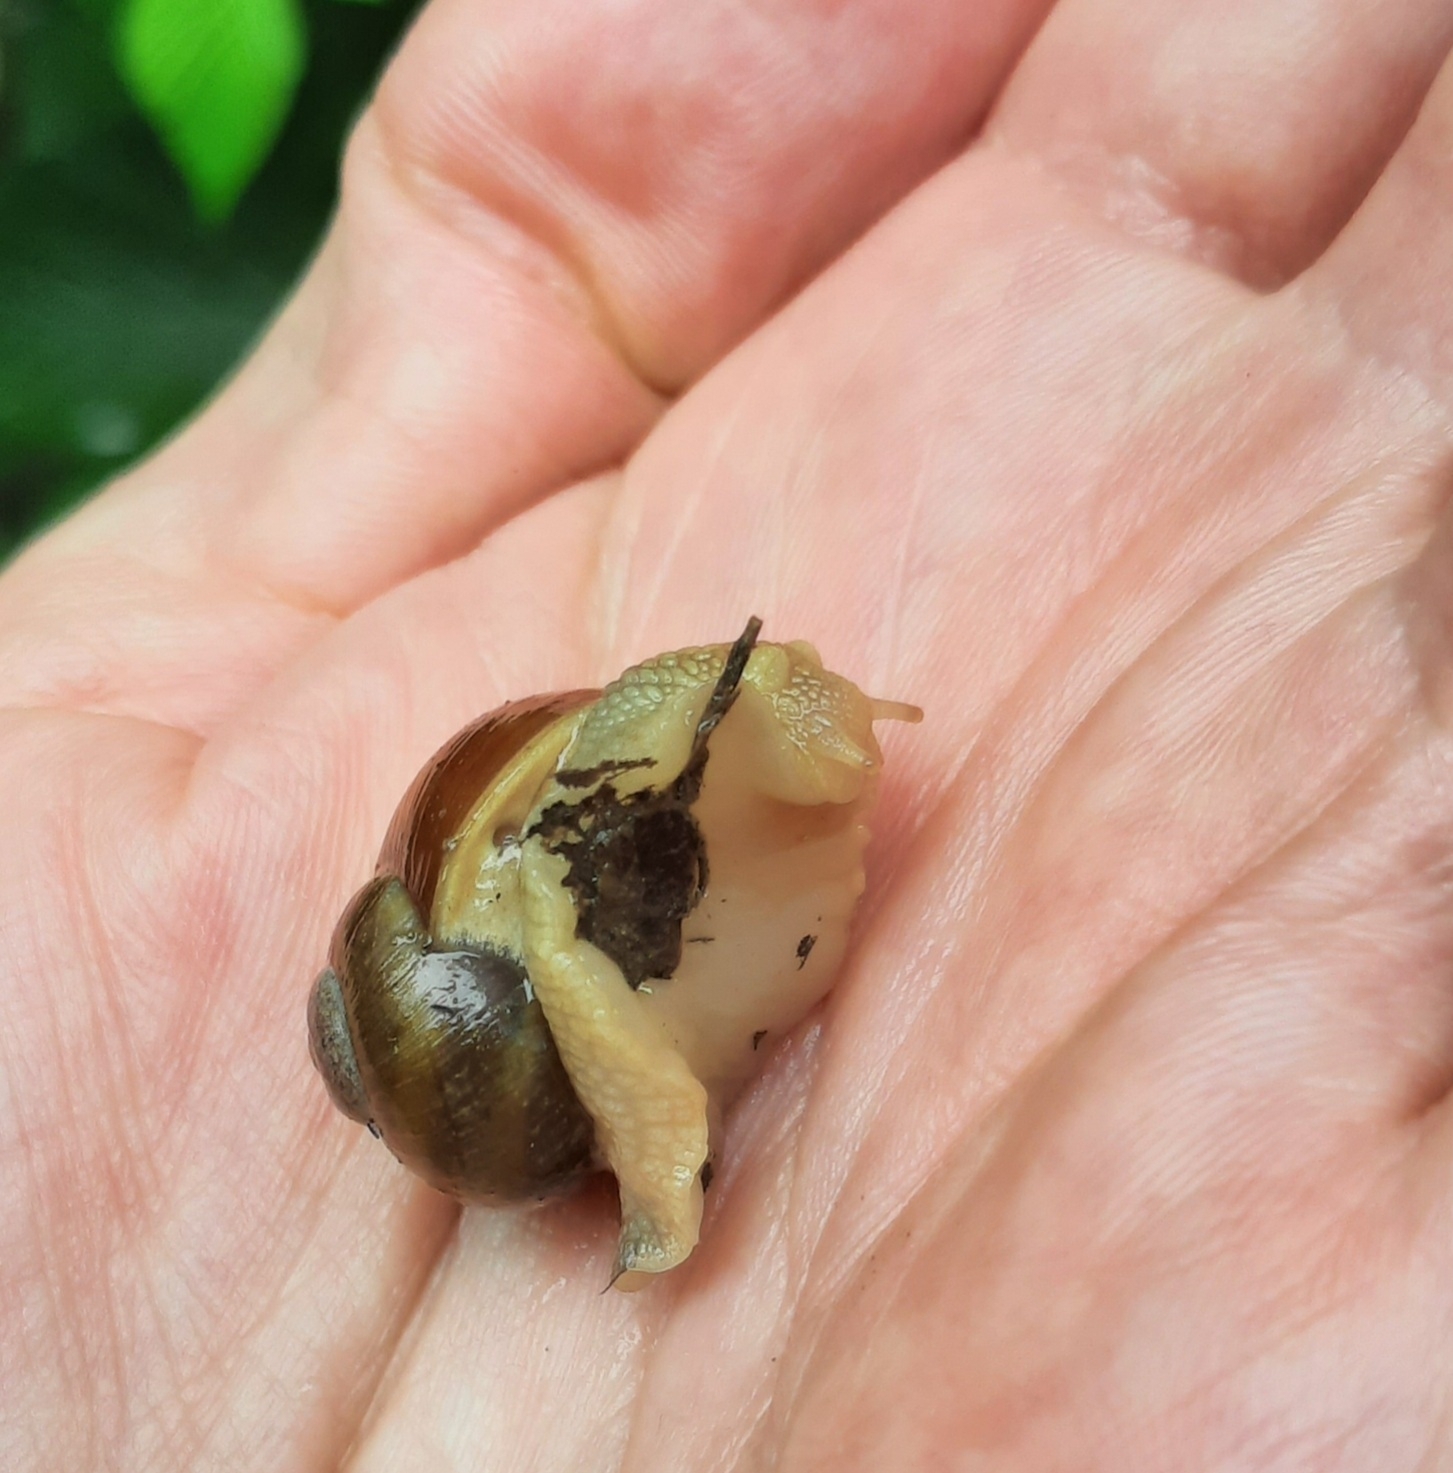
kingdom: Animalia
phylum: Mollusca
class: Gastropoda
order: Stylommatophora
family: Helicidae
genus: Helix
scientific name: Helix pomatia
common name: Roman snail
